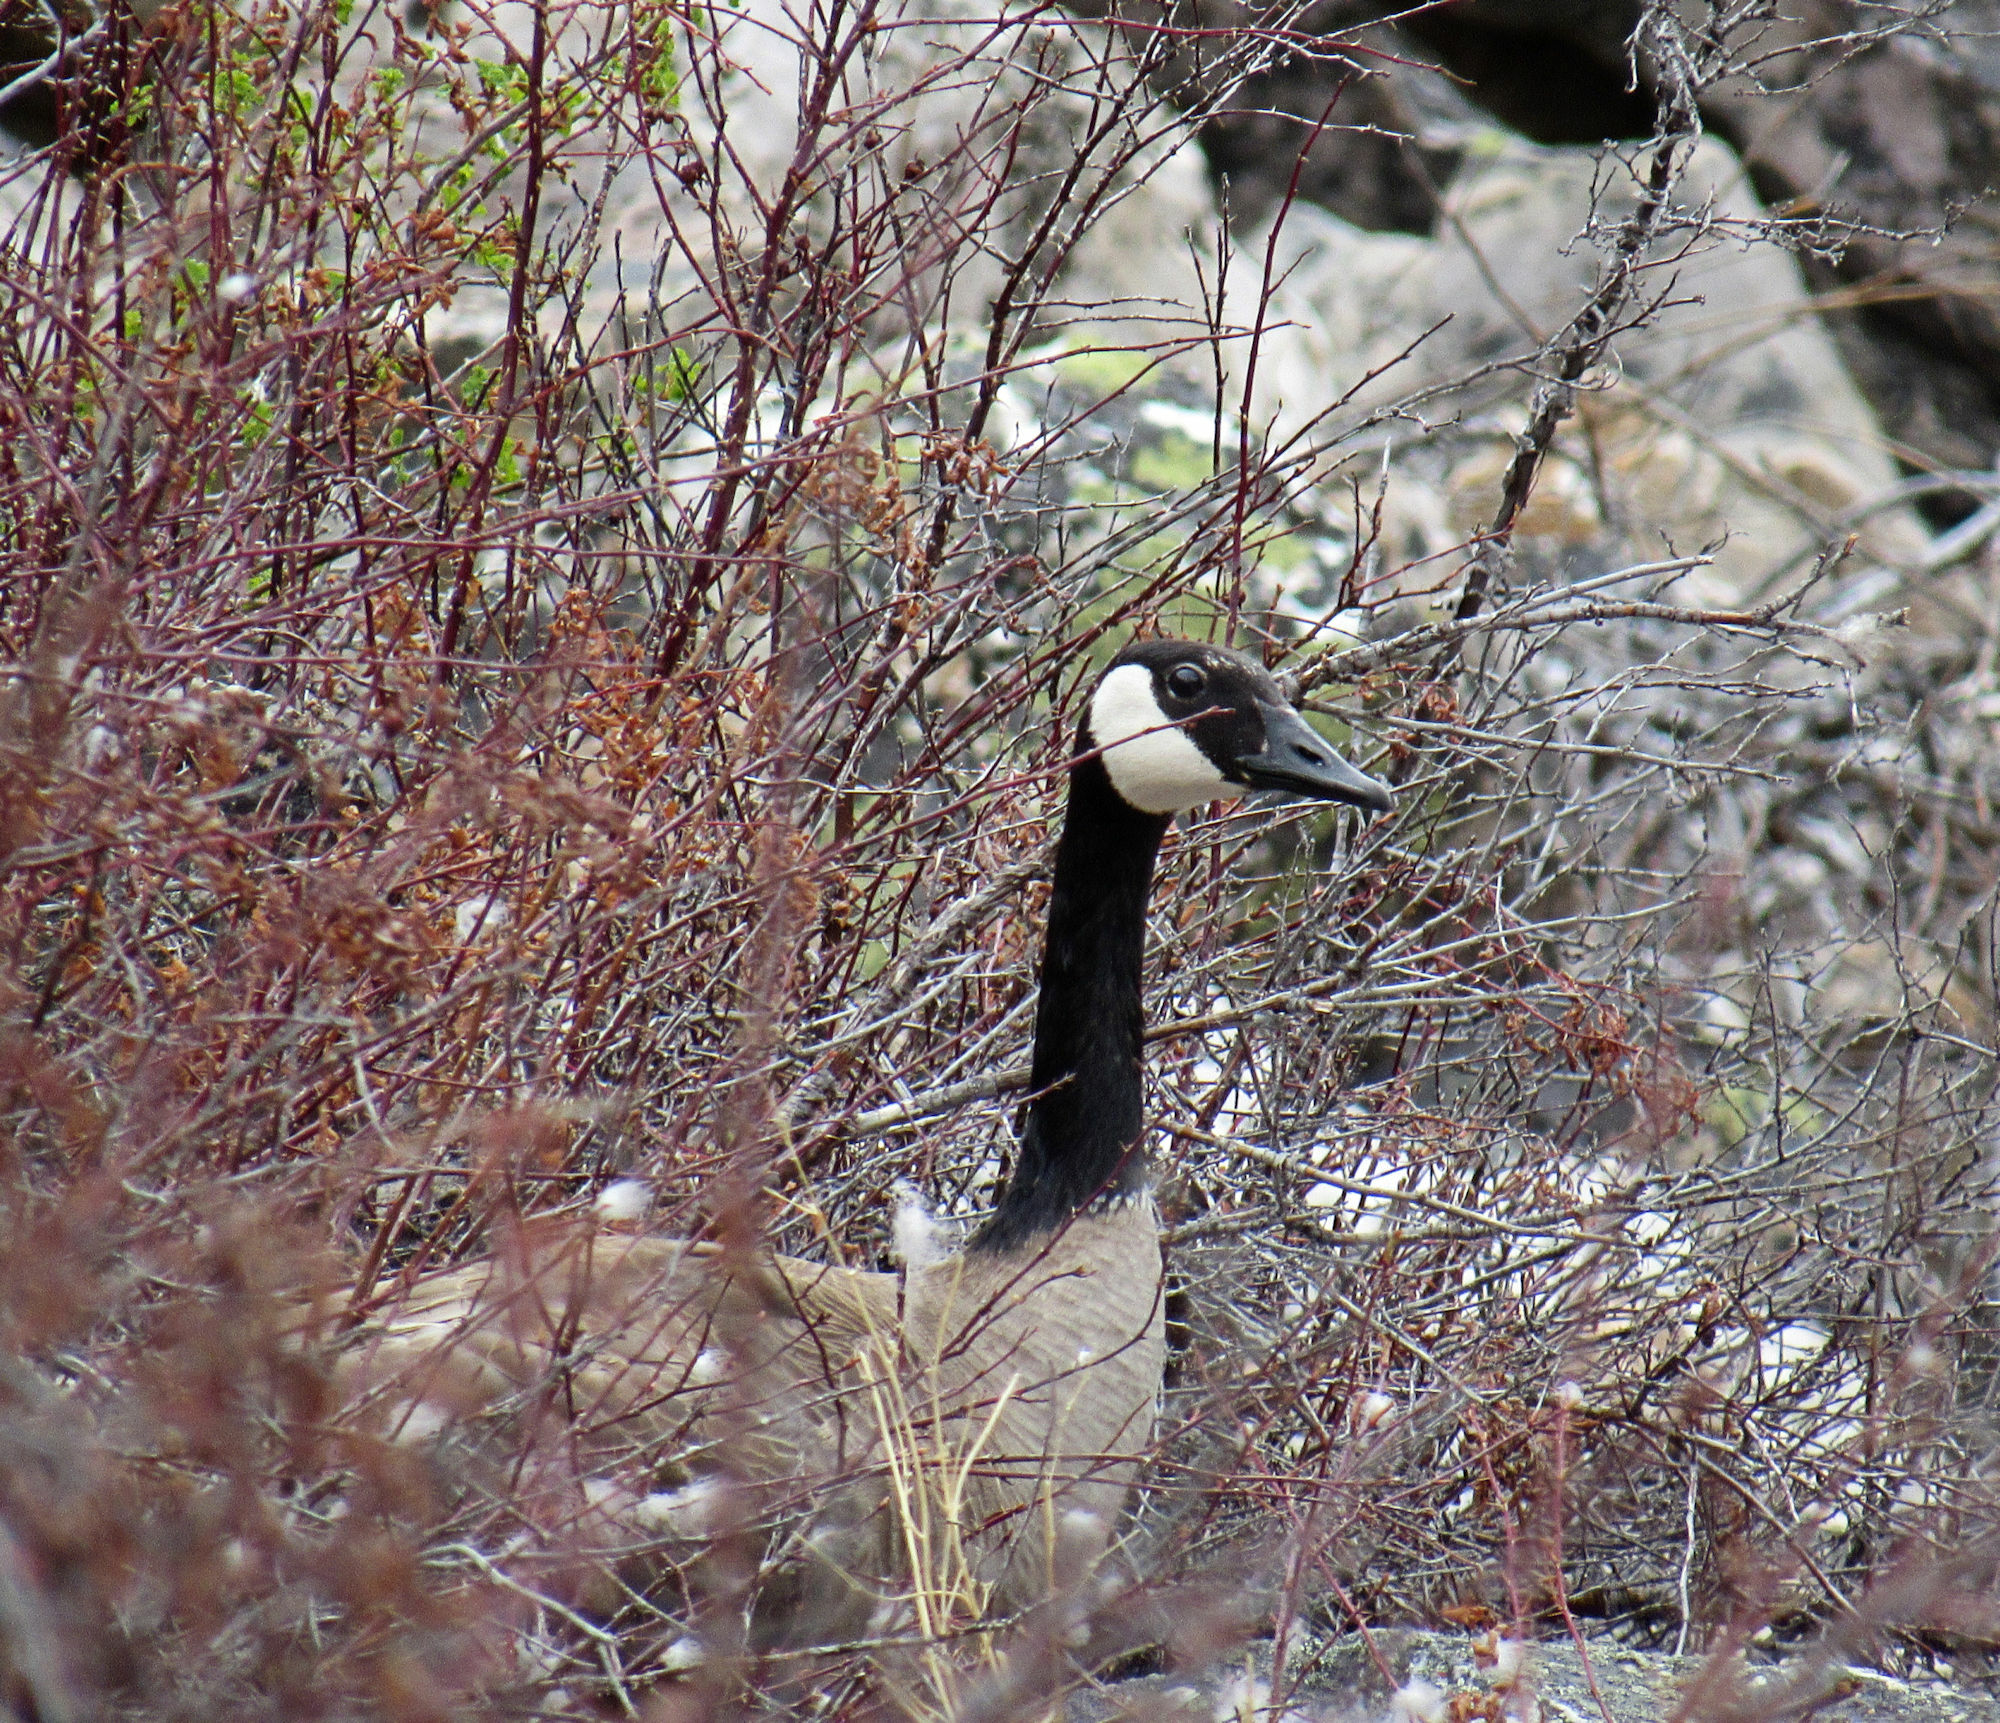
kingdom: Animalia
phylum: Chordata
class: Aves
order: Anseriformes
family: Anatidae
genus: Branta
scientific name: Branta canadensis
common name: Canada goose
